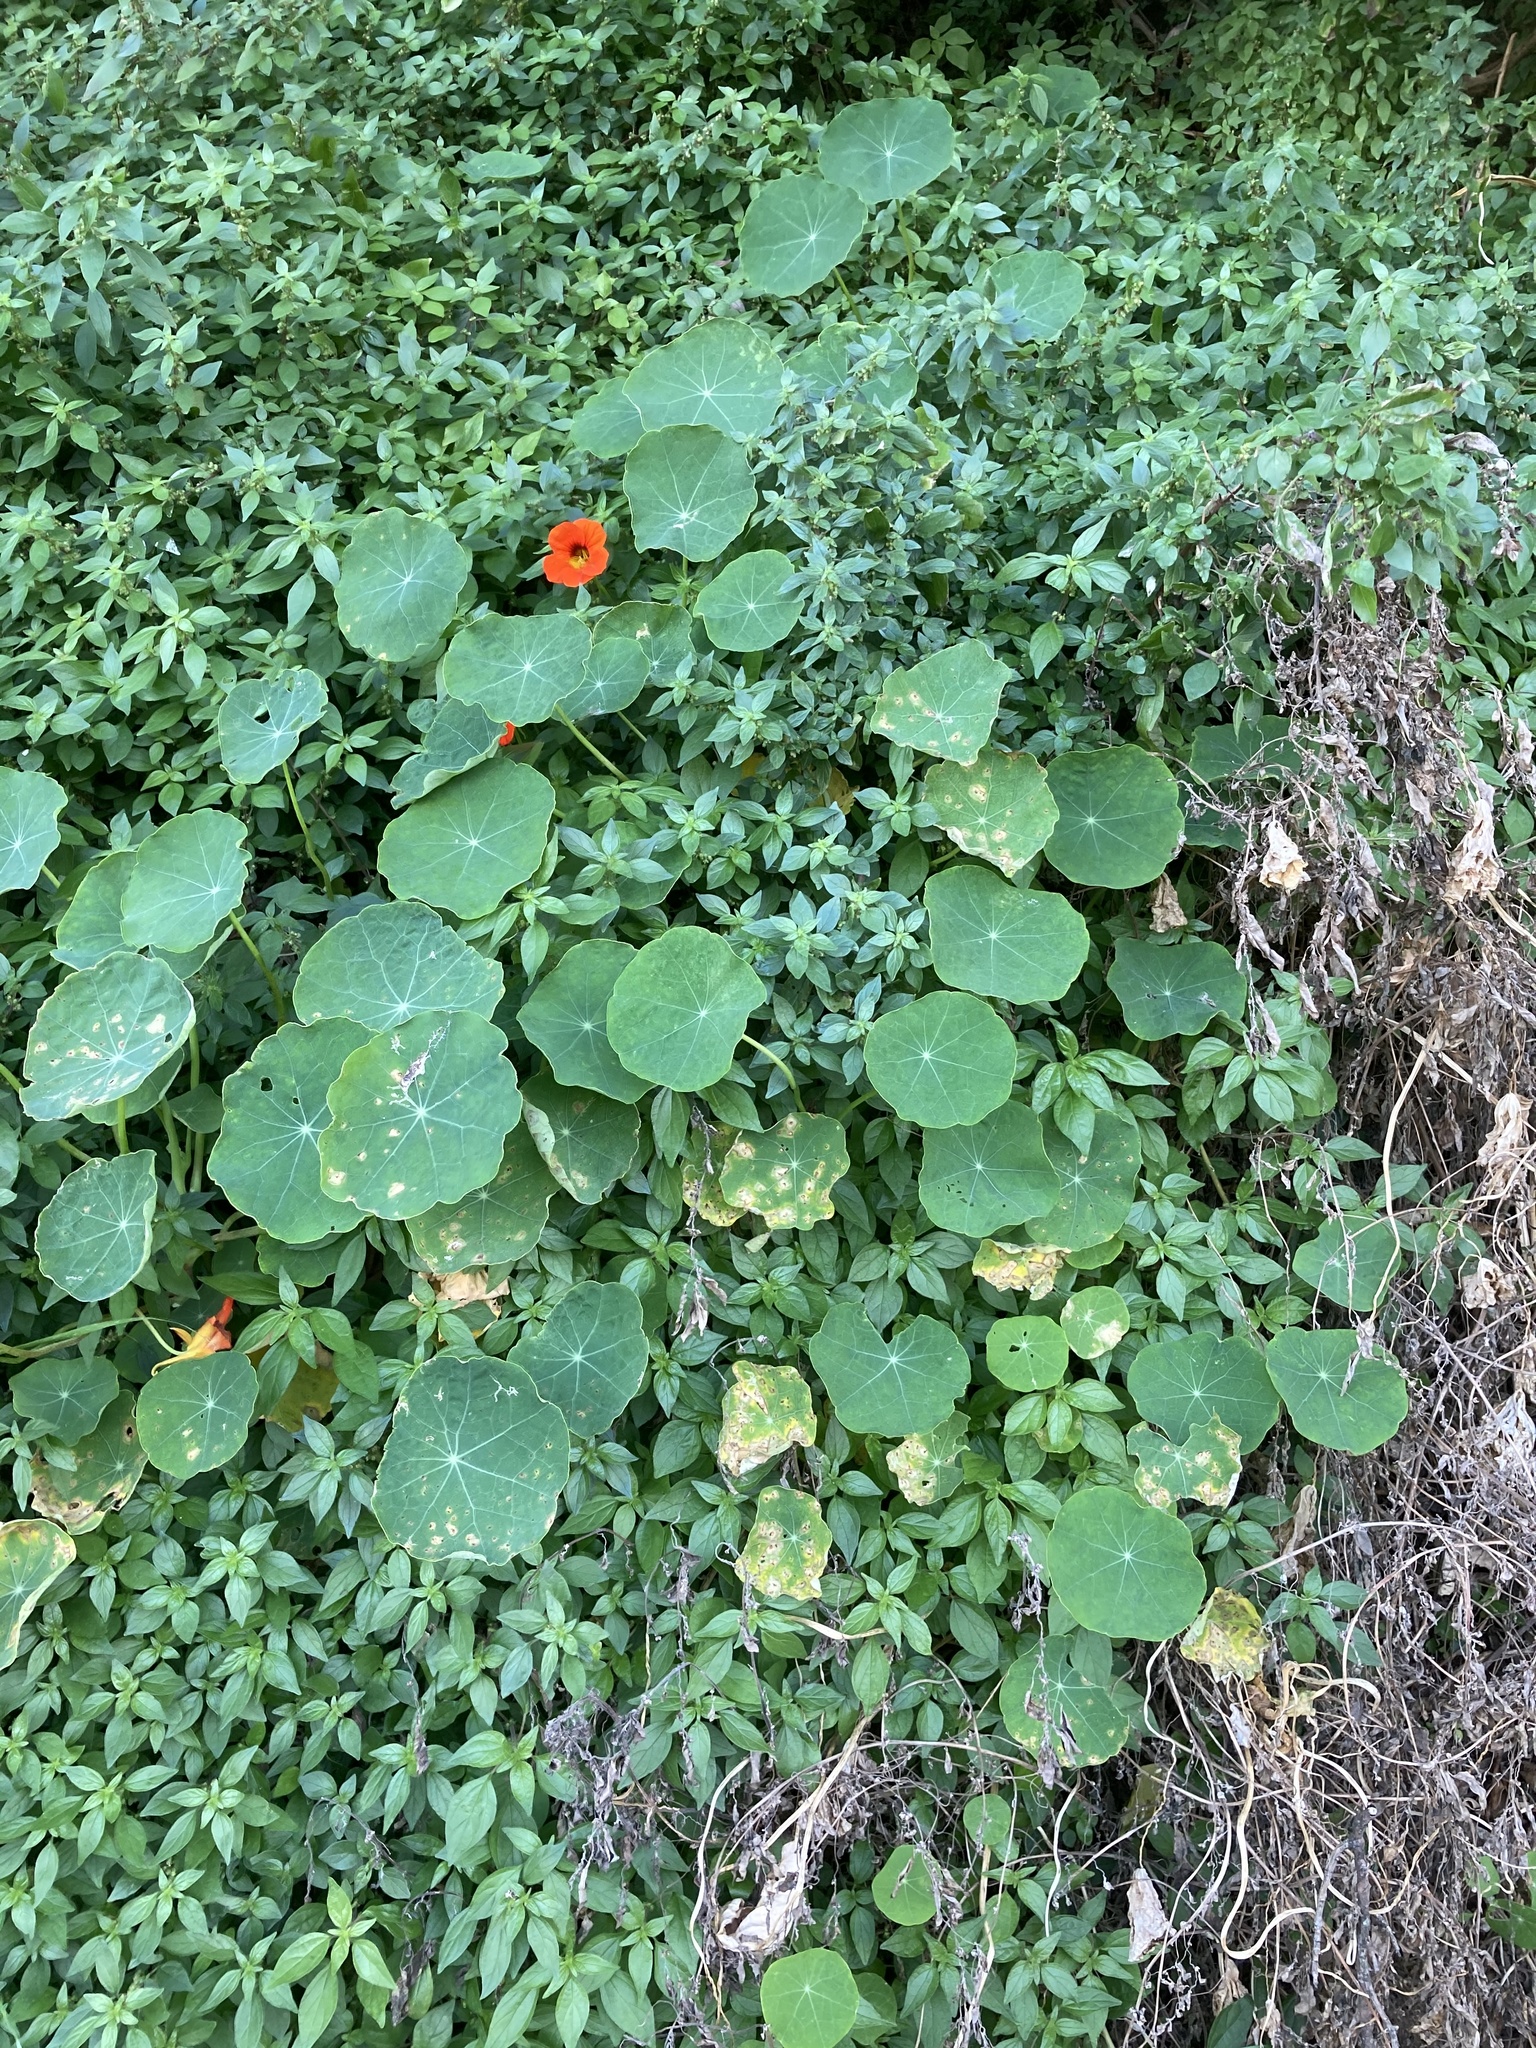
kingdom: Plantae
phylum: Tracheophyta
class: Magnoliopsida
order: Brassicales
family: Tropaeolaceae
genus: Tropaeolum
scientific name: Tropaeolum majus
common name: Nasturtium
